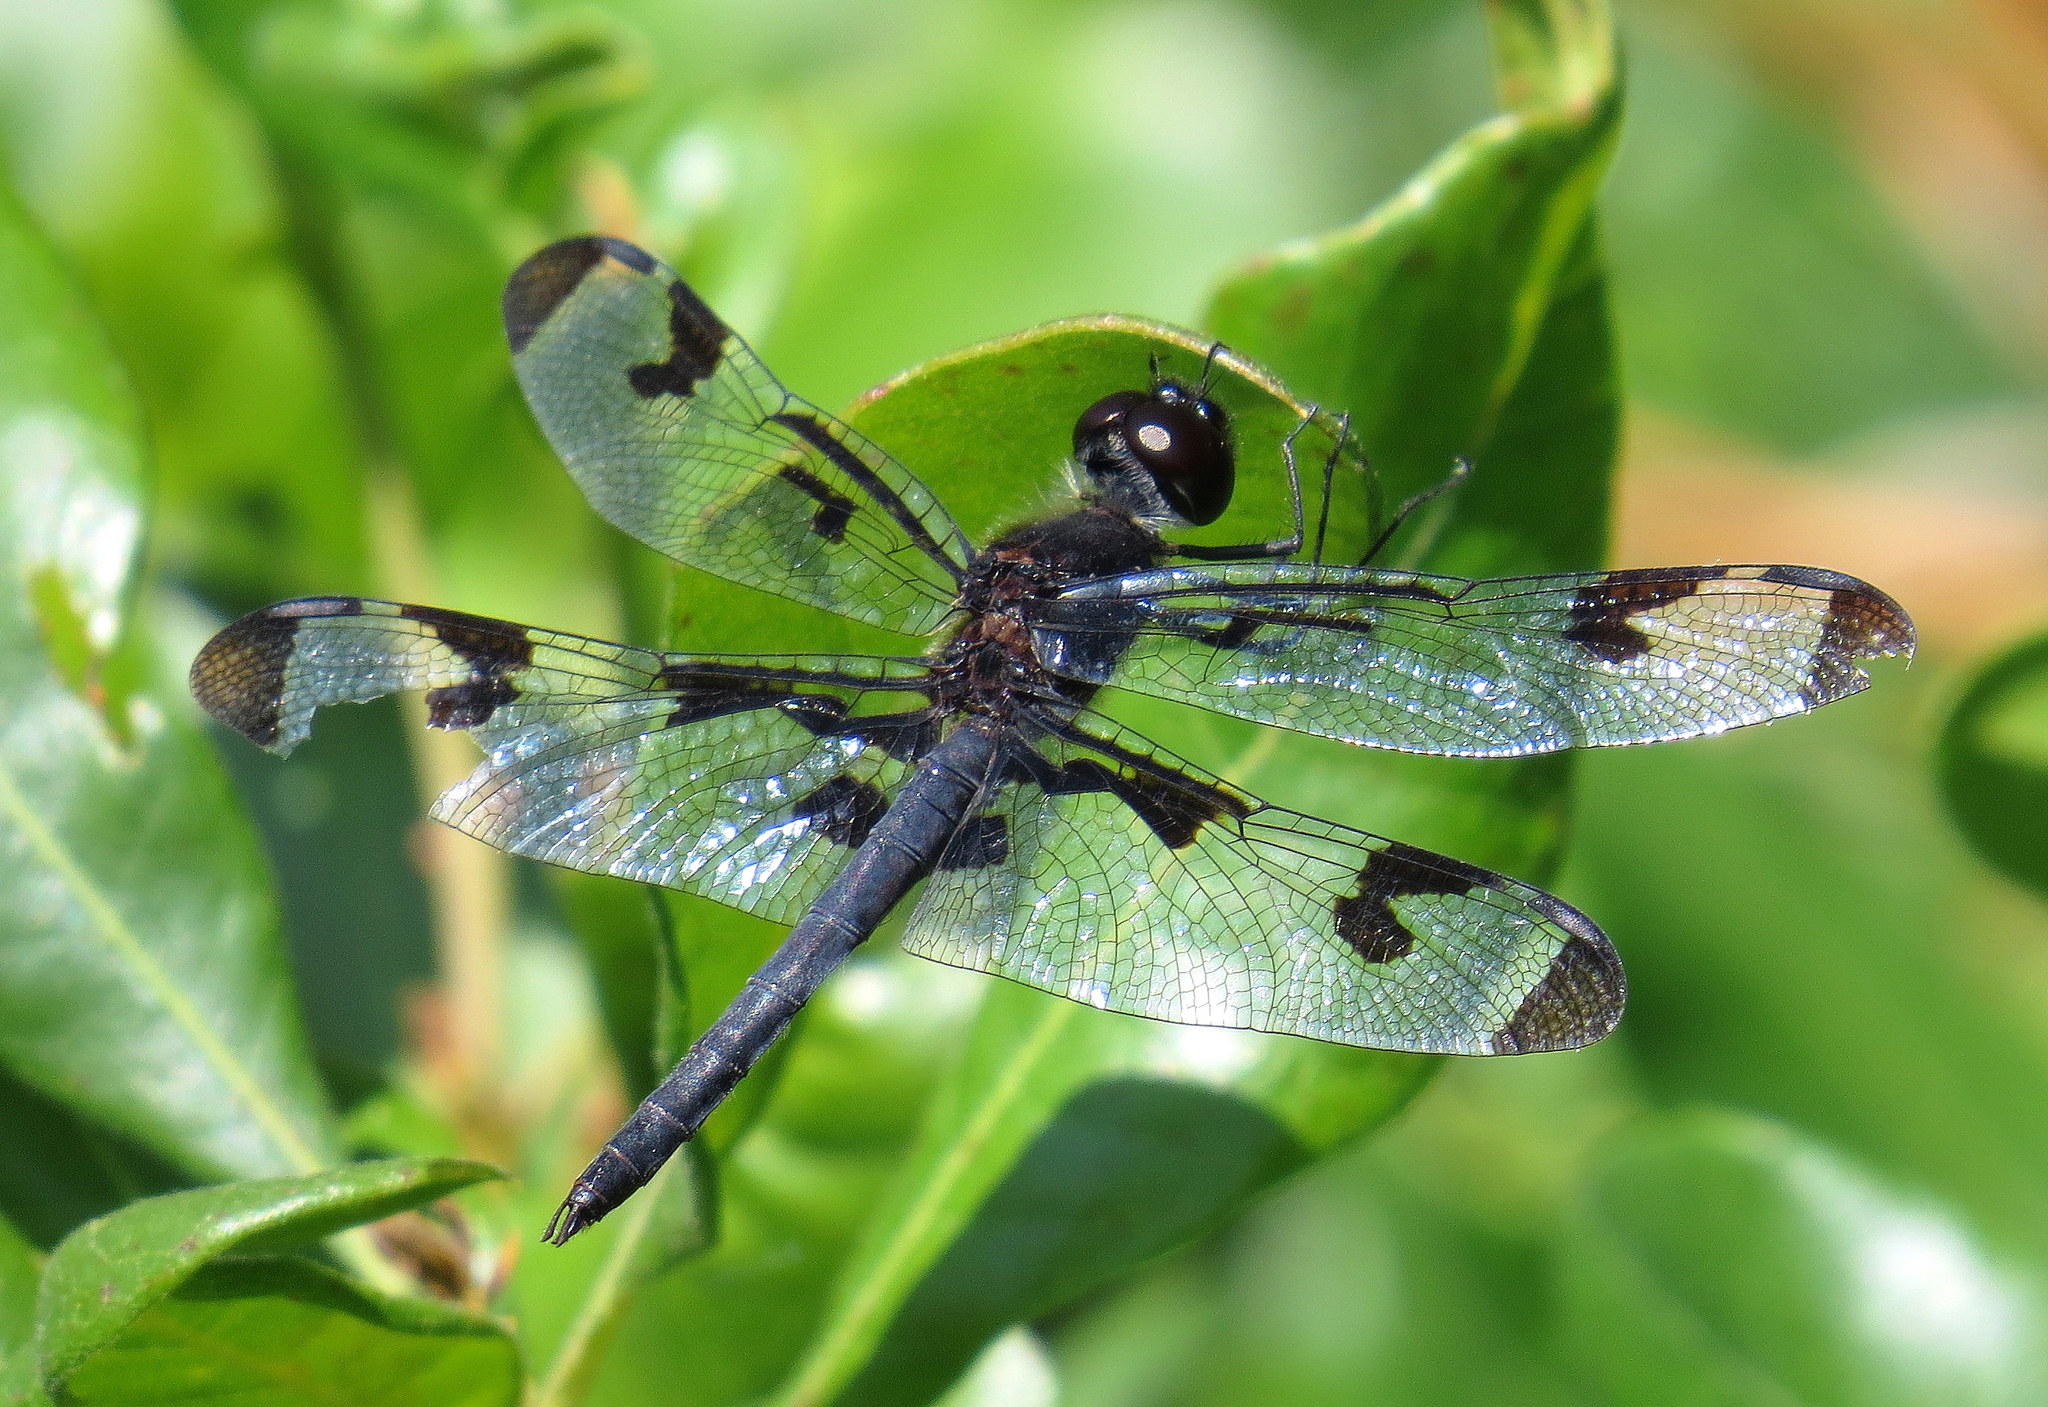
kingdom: Animalia
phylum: Arthropoda
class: Insecta
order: Odonata
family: Libellulidae
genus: Celithemis
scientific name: Celithemis fasciata
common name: Banded pennant
